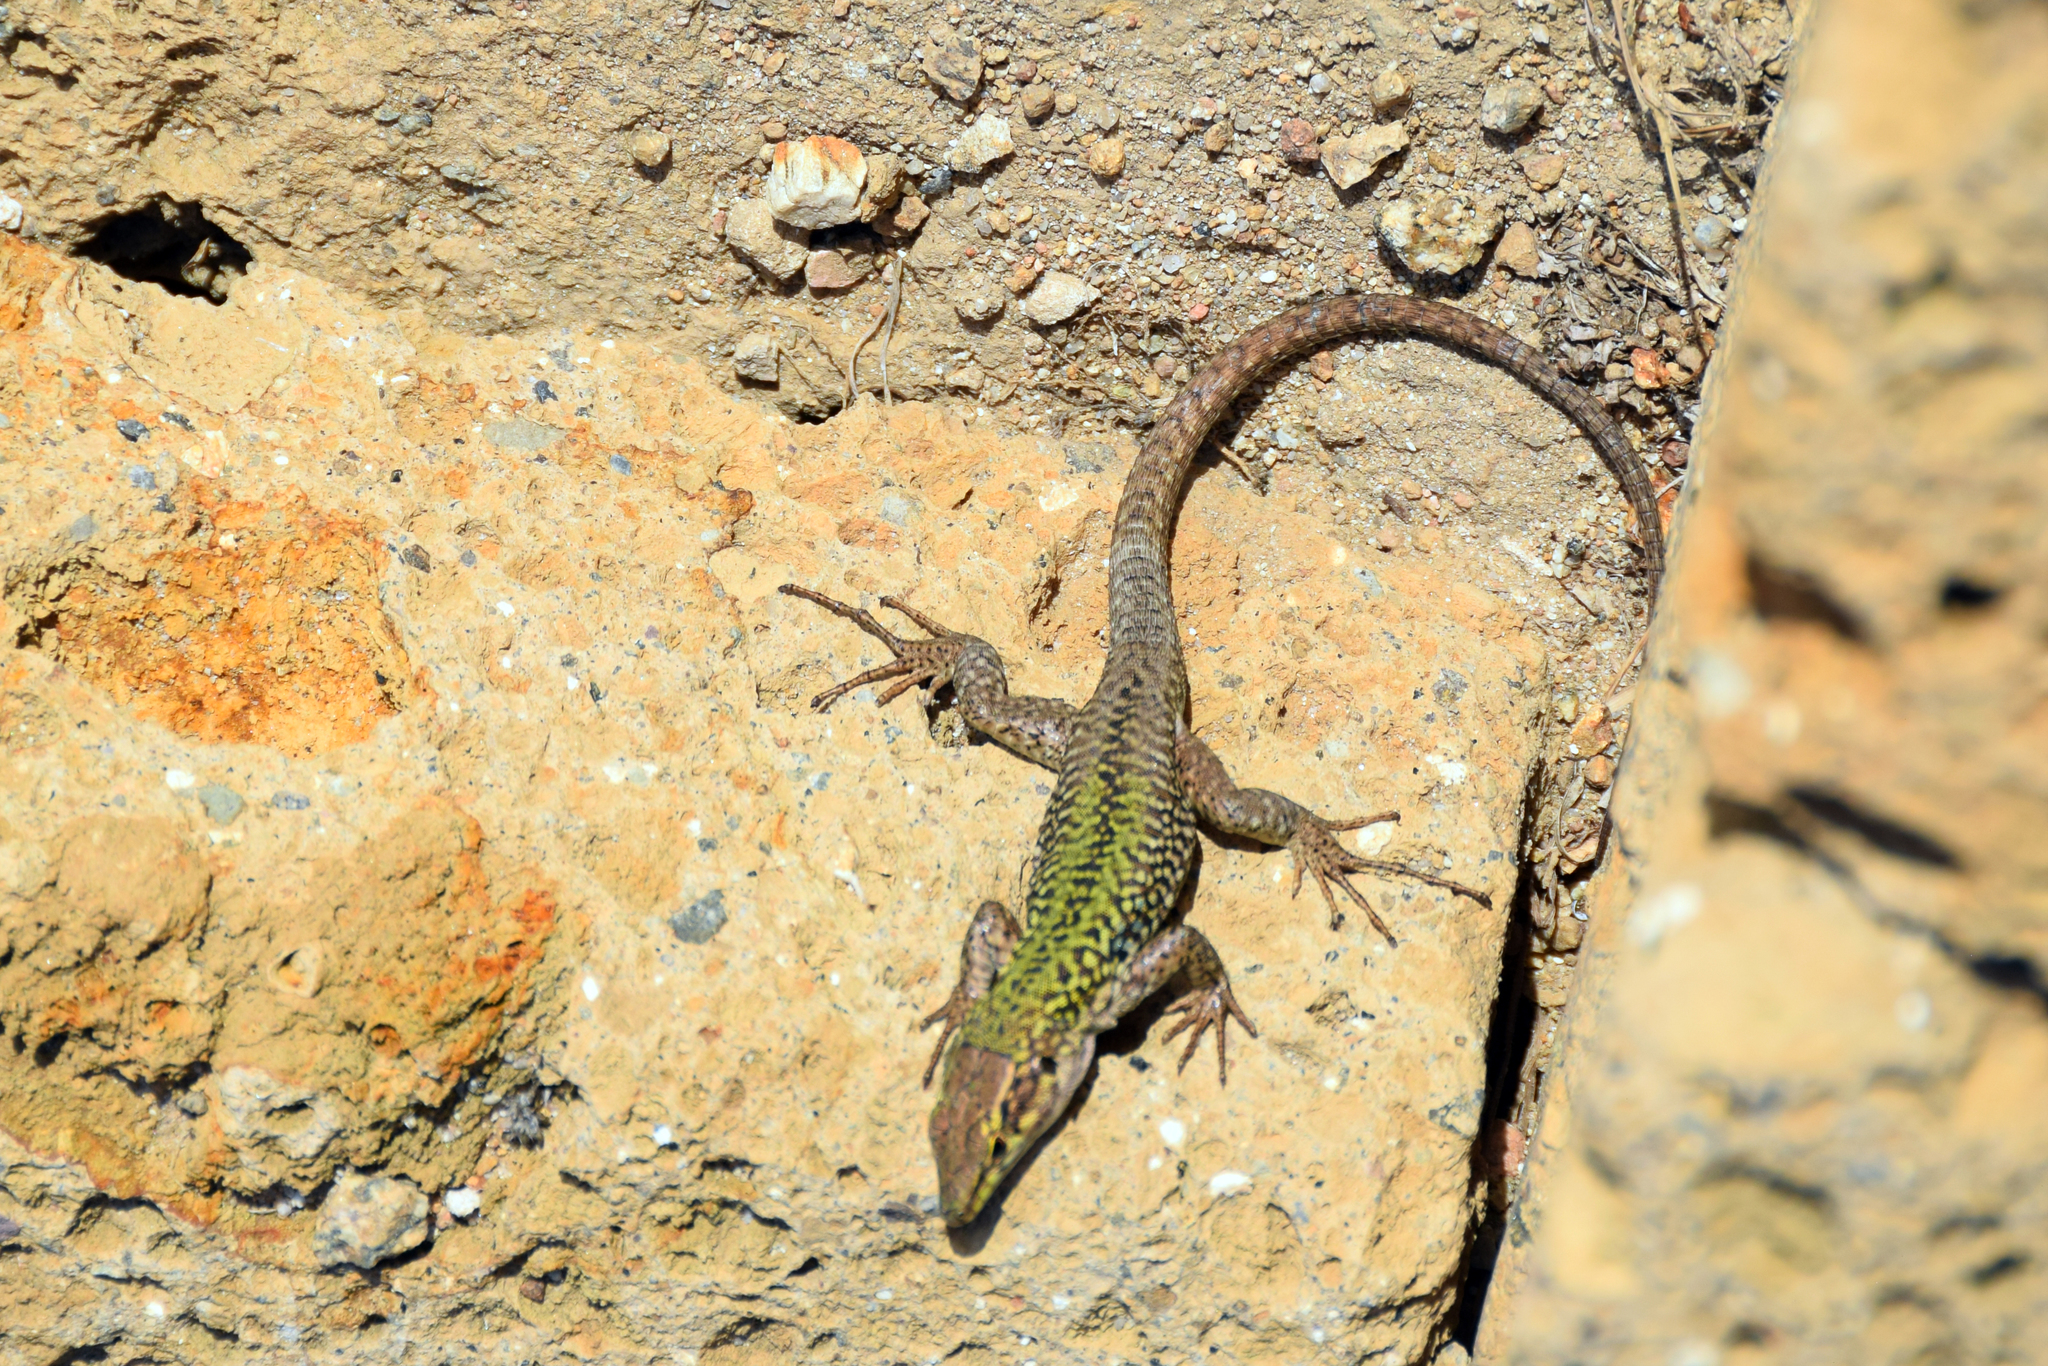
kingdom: Animalia
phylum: Chordata
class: Squamata
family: Lacertidae
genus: Podarcis
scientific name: Podarcis siculus
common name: Italian wall lizard
